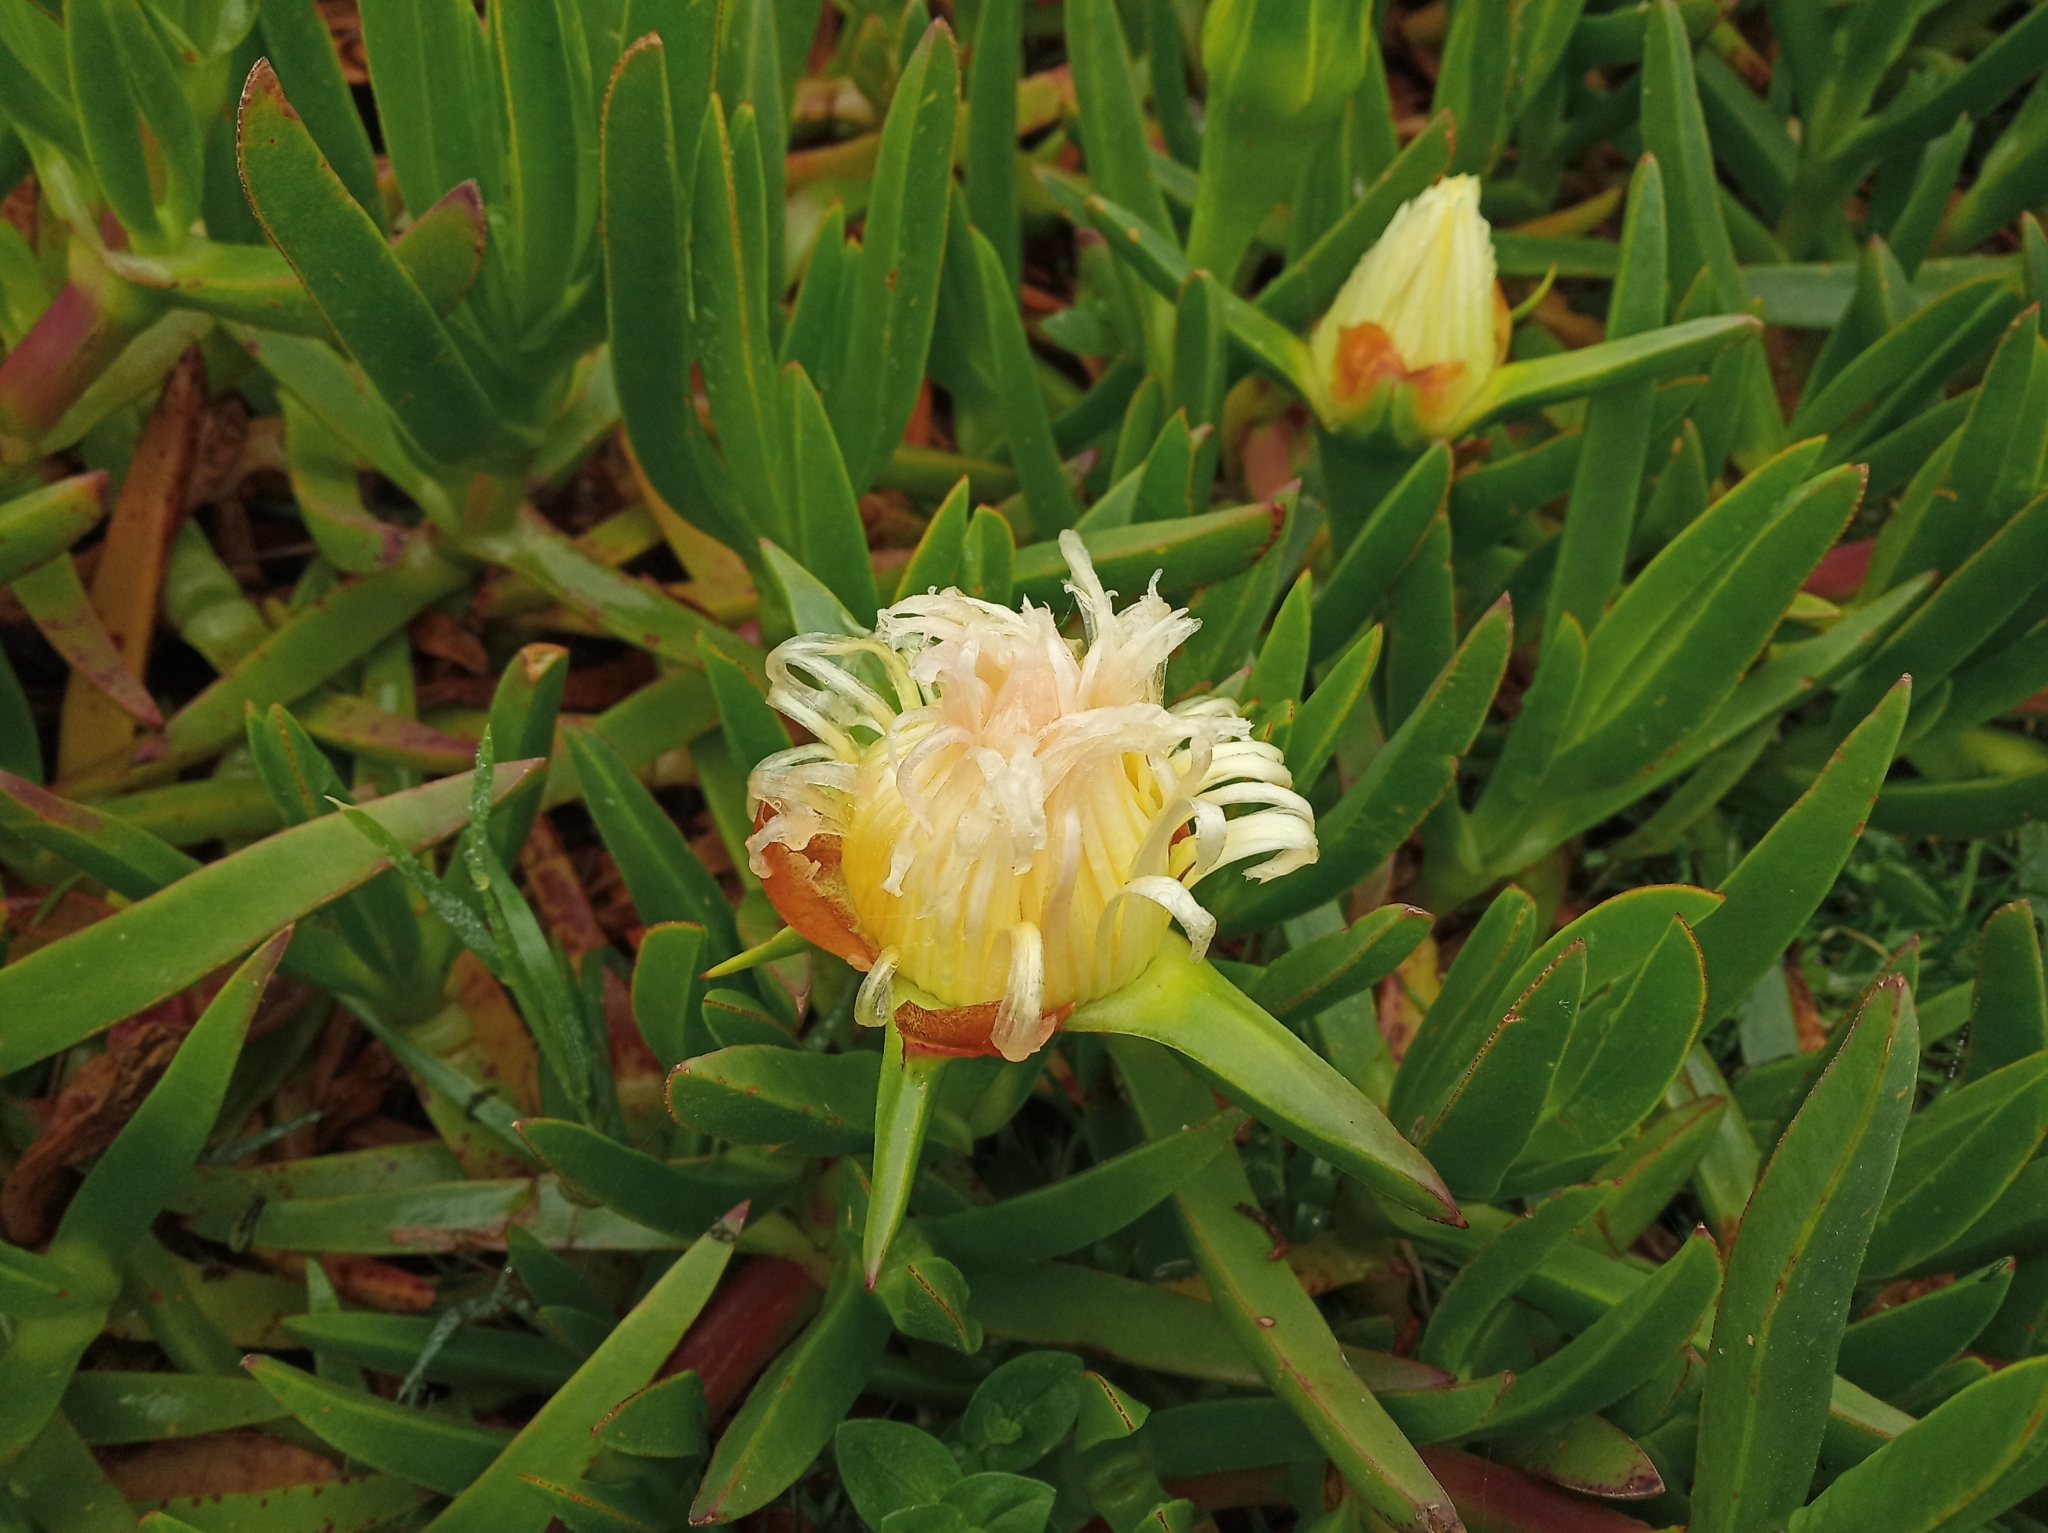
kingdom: Plantae
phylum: Tracheophyta
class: Magnoliopsida
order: Caryophyllales
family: Aizoaceae
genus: Carpobrotus
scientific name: Carpobrotus edulis
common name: Hottentot-fig
